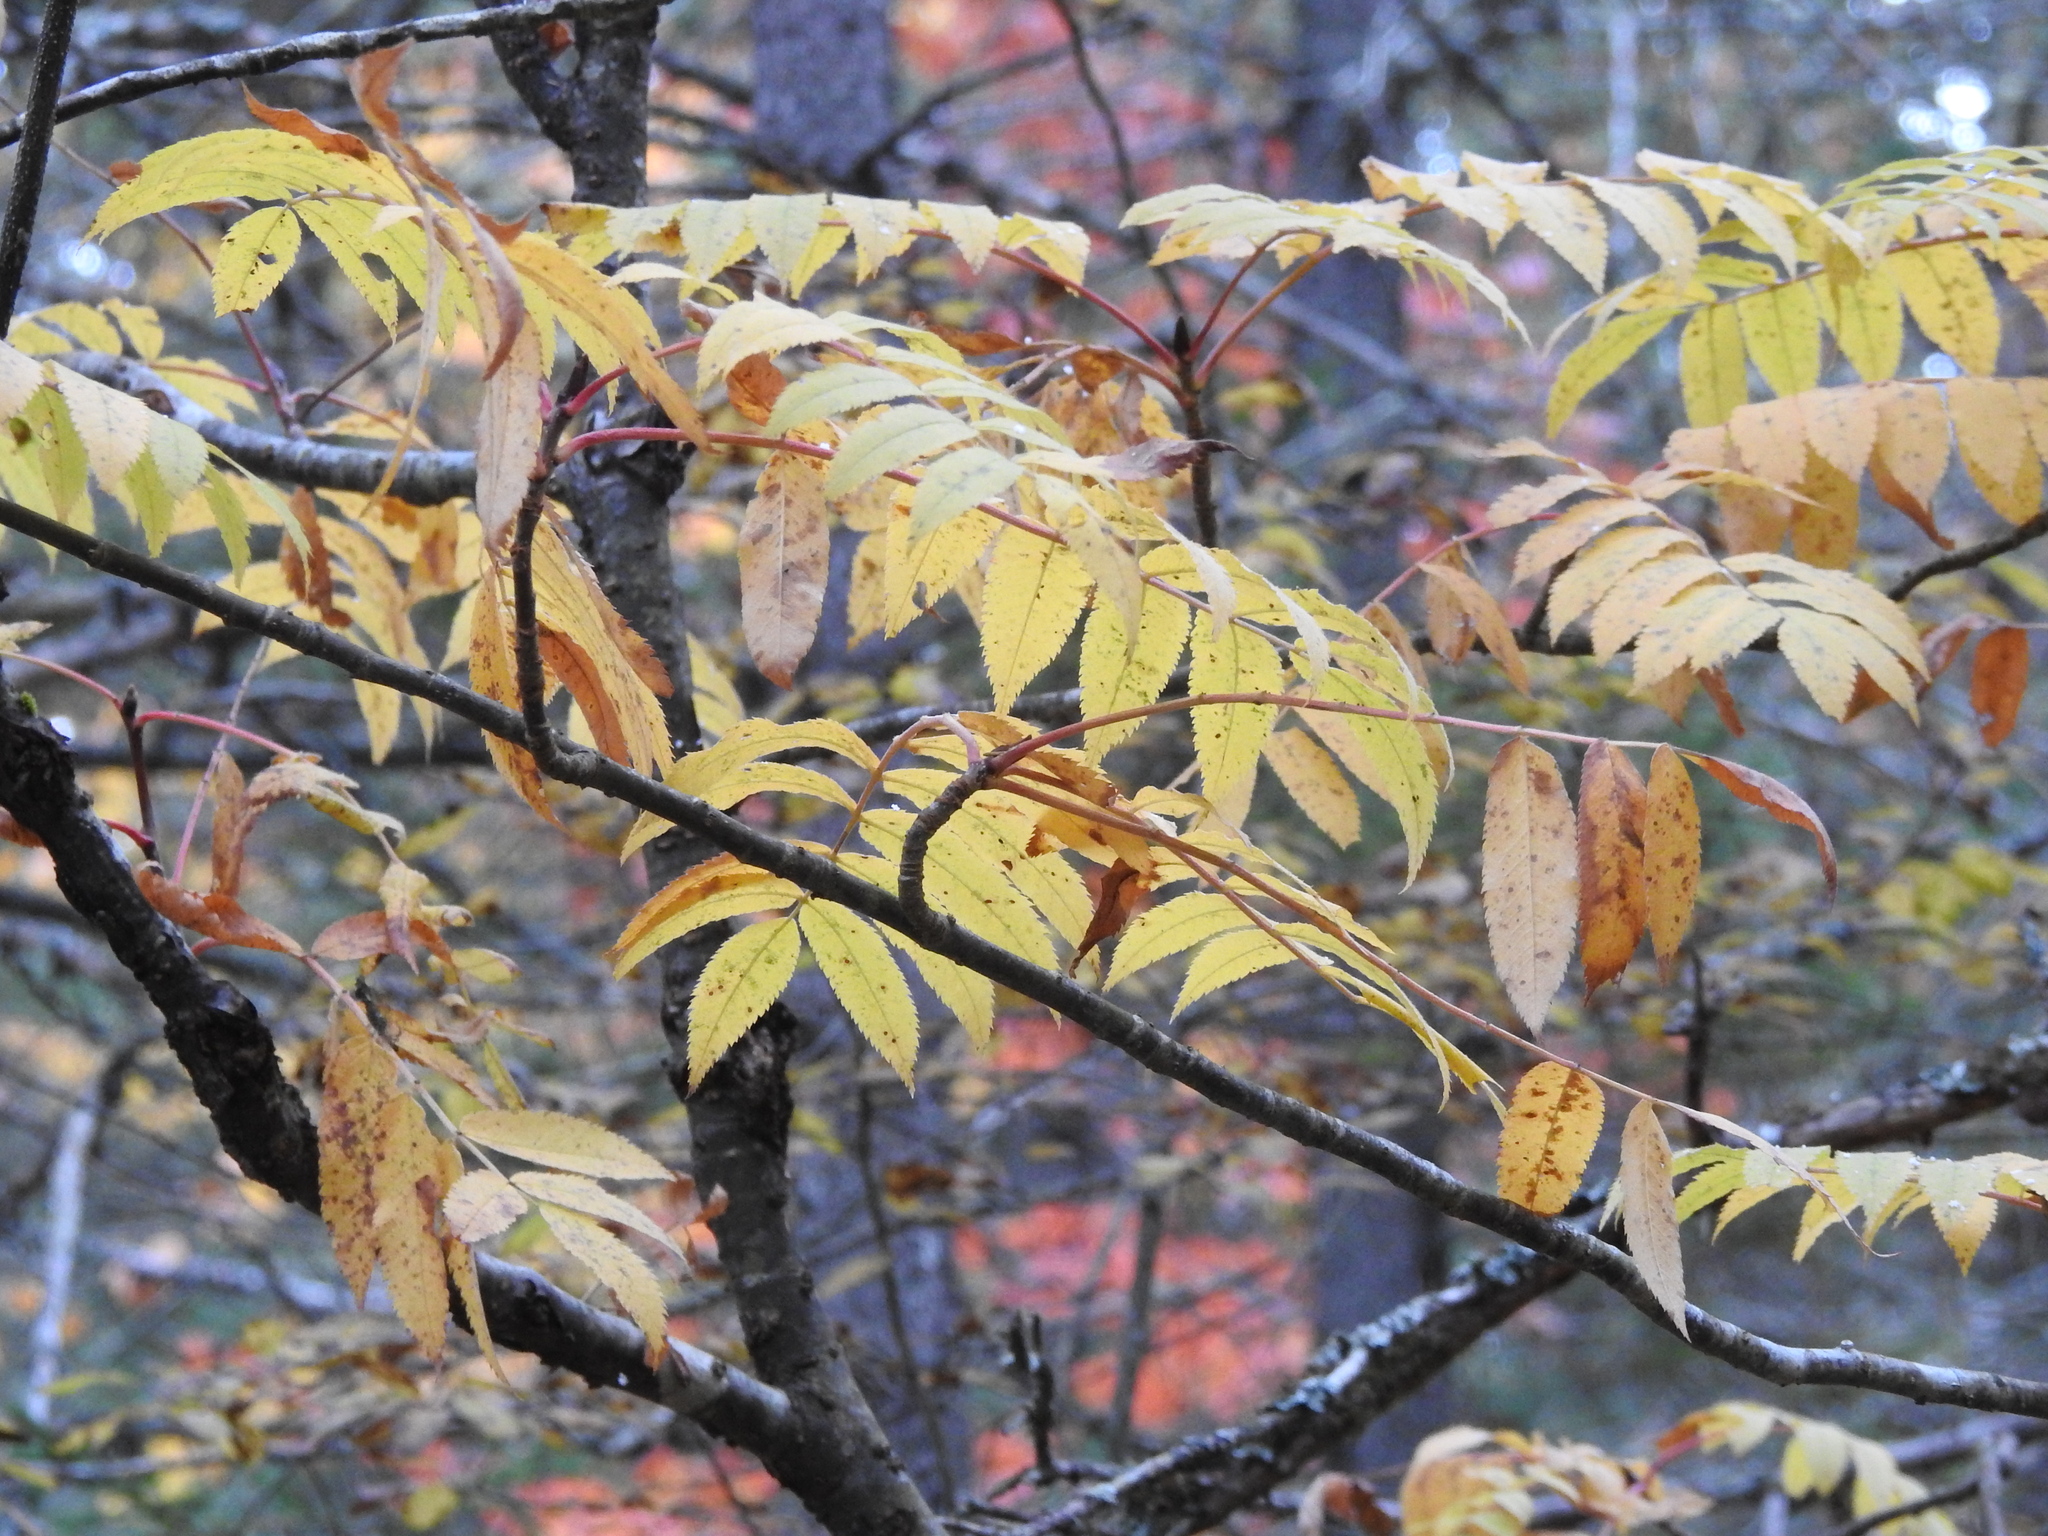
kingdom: Plantae
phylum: Tracheophyta
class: Magnoliopsida
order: Rosales
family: Rosaceae
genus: Sorbus
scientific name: Sorbus americana
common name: American mountain-ash
